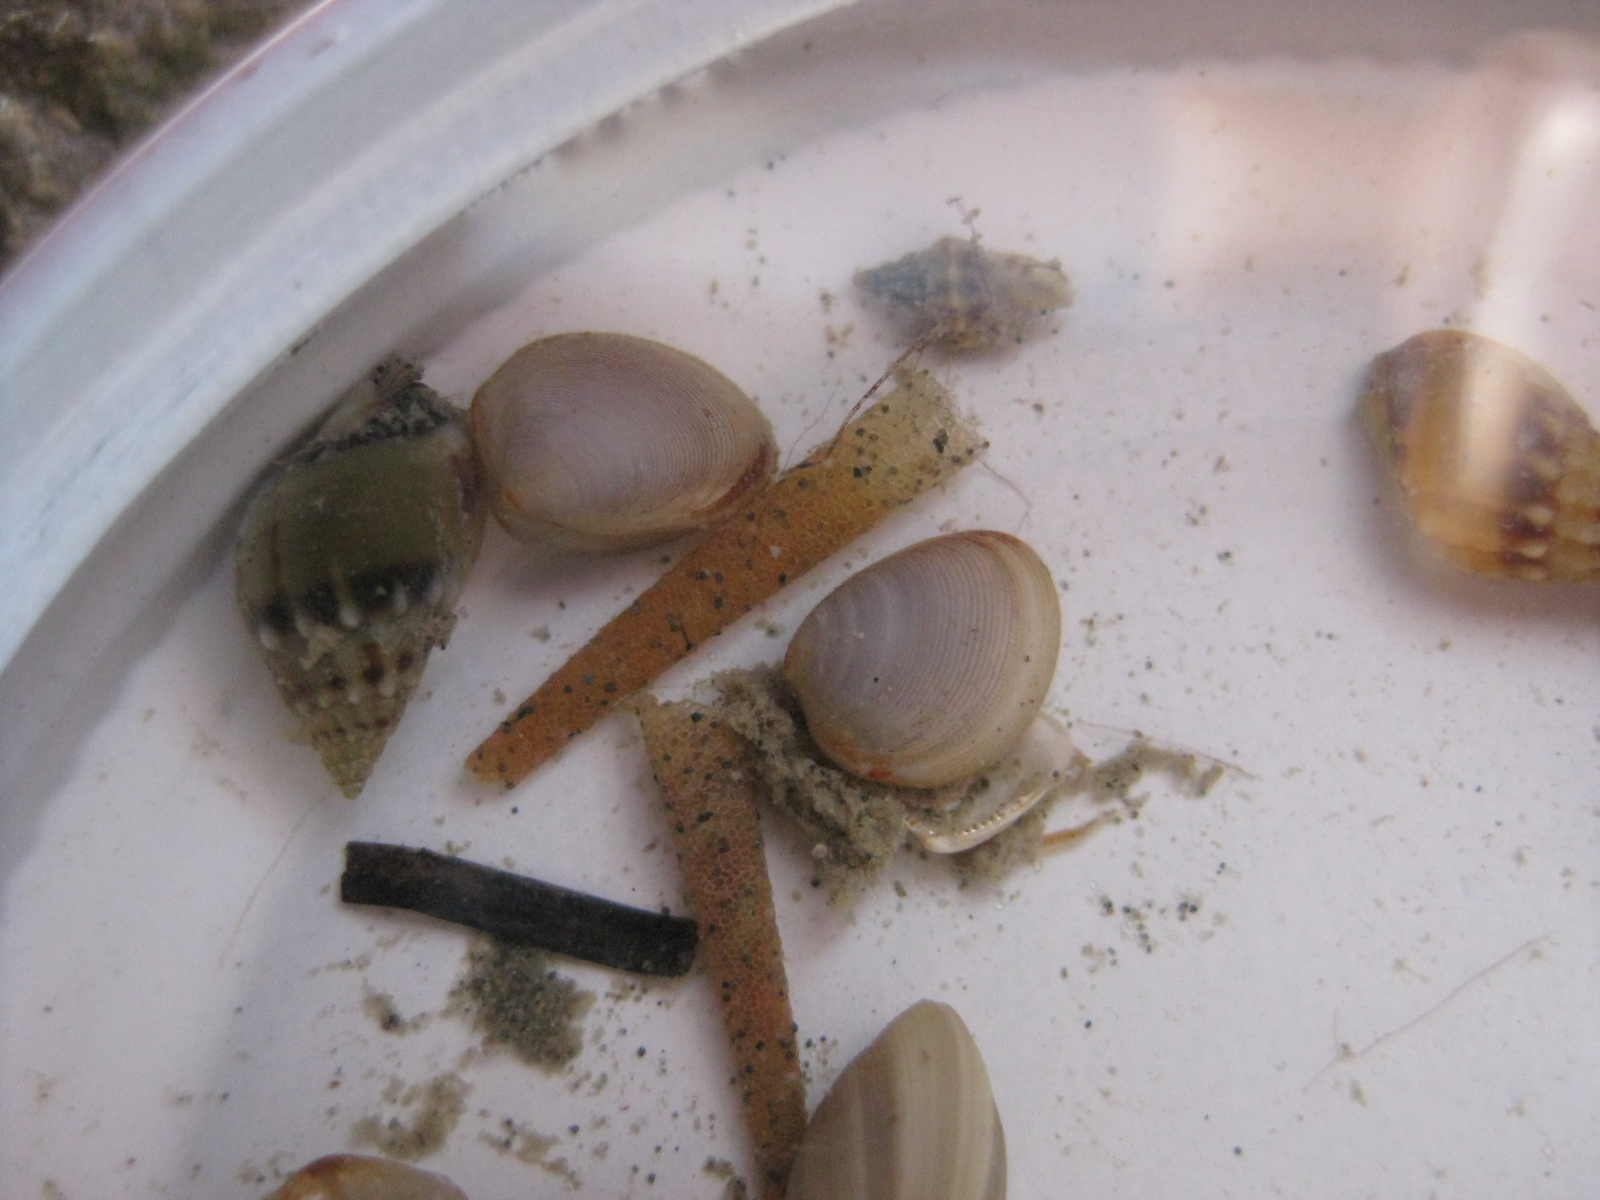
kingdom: Animalia
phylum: Annelida
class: Polychaeta
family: Pectinariidae
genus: Lagis
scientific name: Lagis australis
